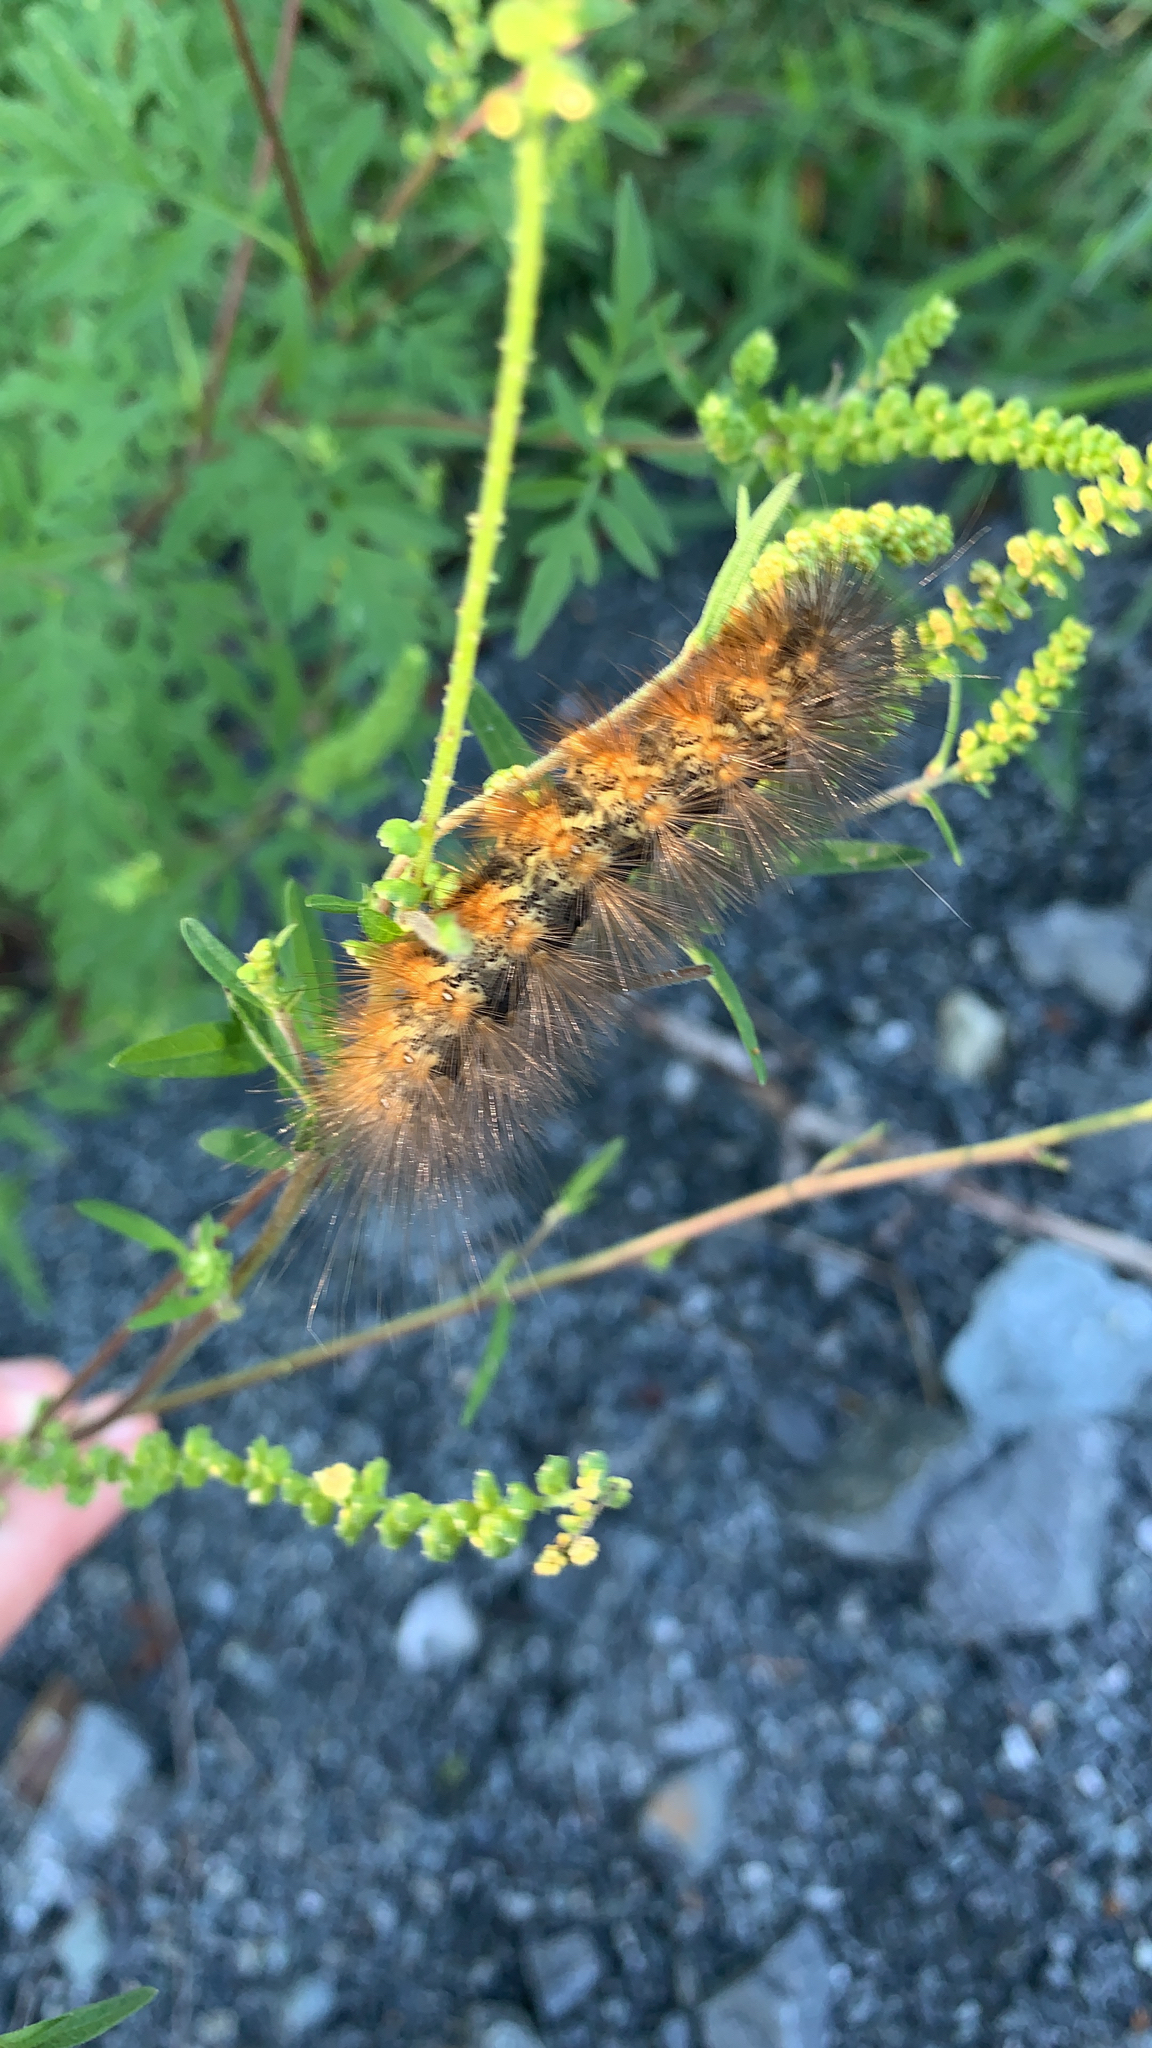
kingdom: Animalia
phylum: Arthropoda
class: Insecta
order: Lepidoptera
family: Erebidae
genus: Estigmene
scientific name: Estigmene acrea
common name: Salt marsh moth
